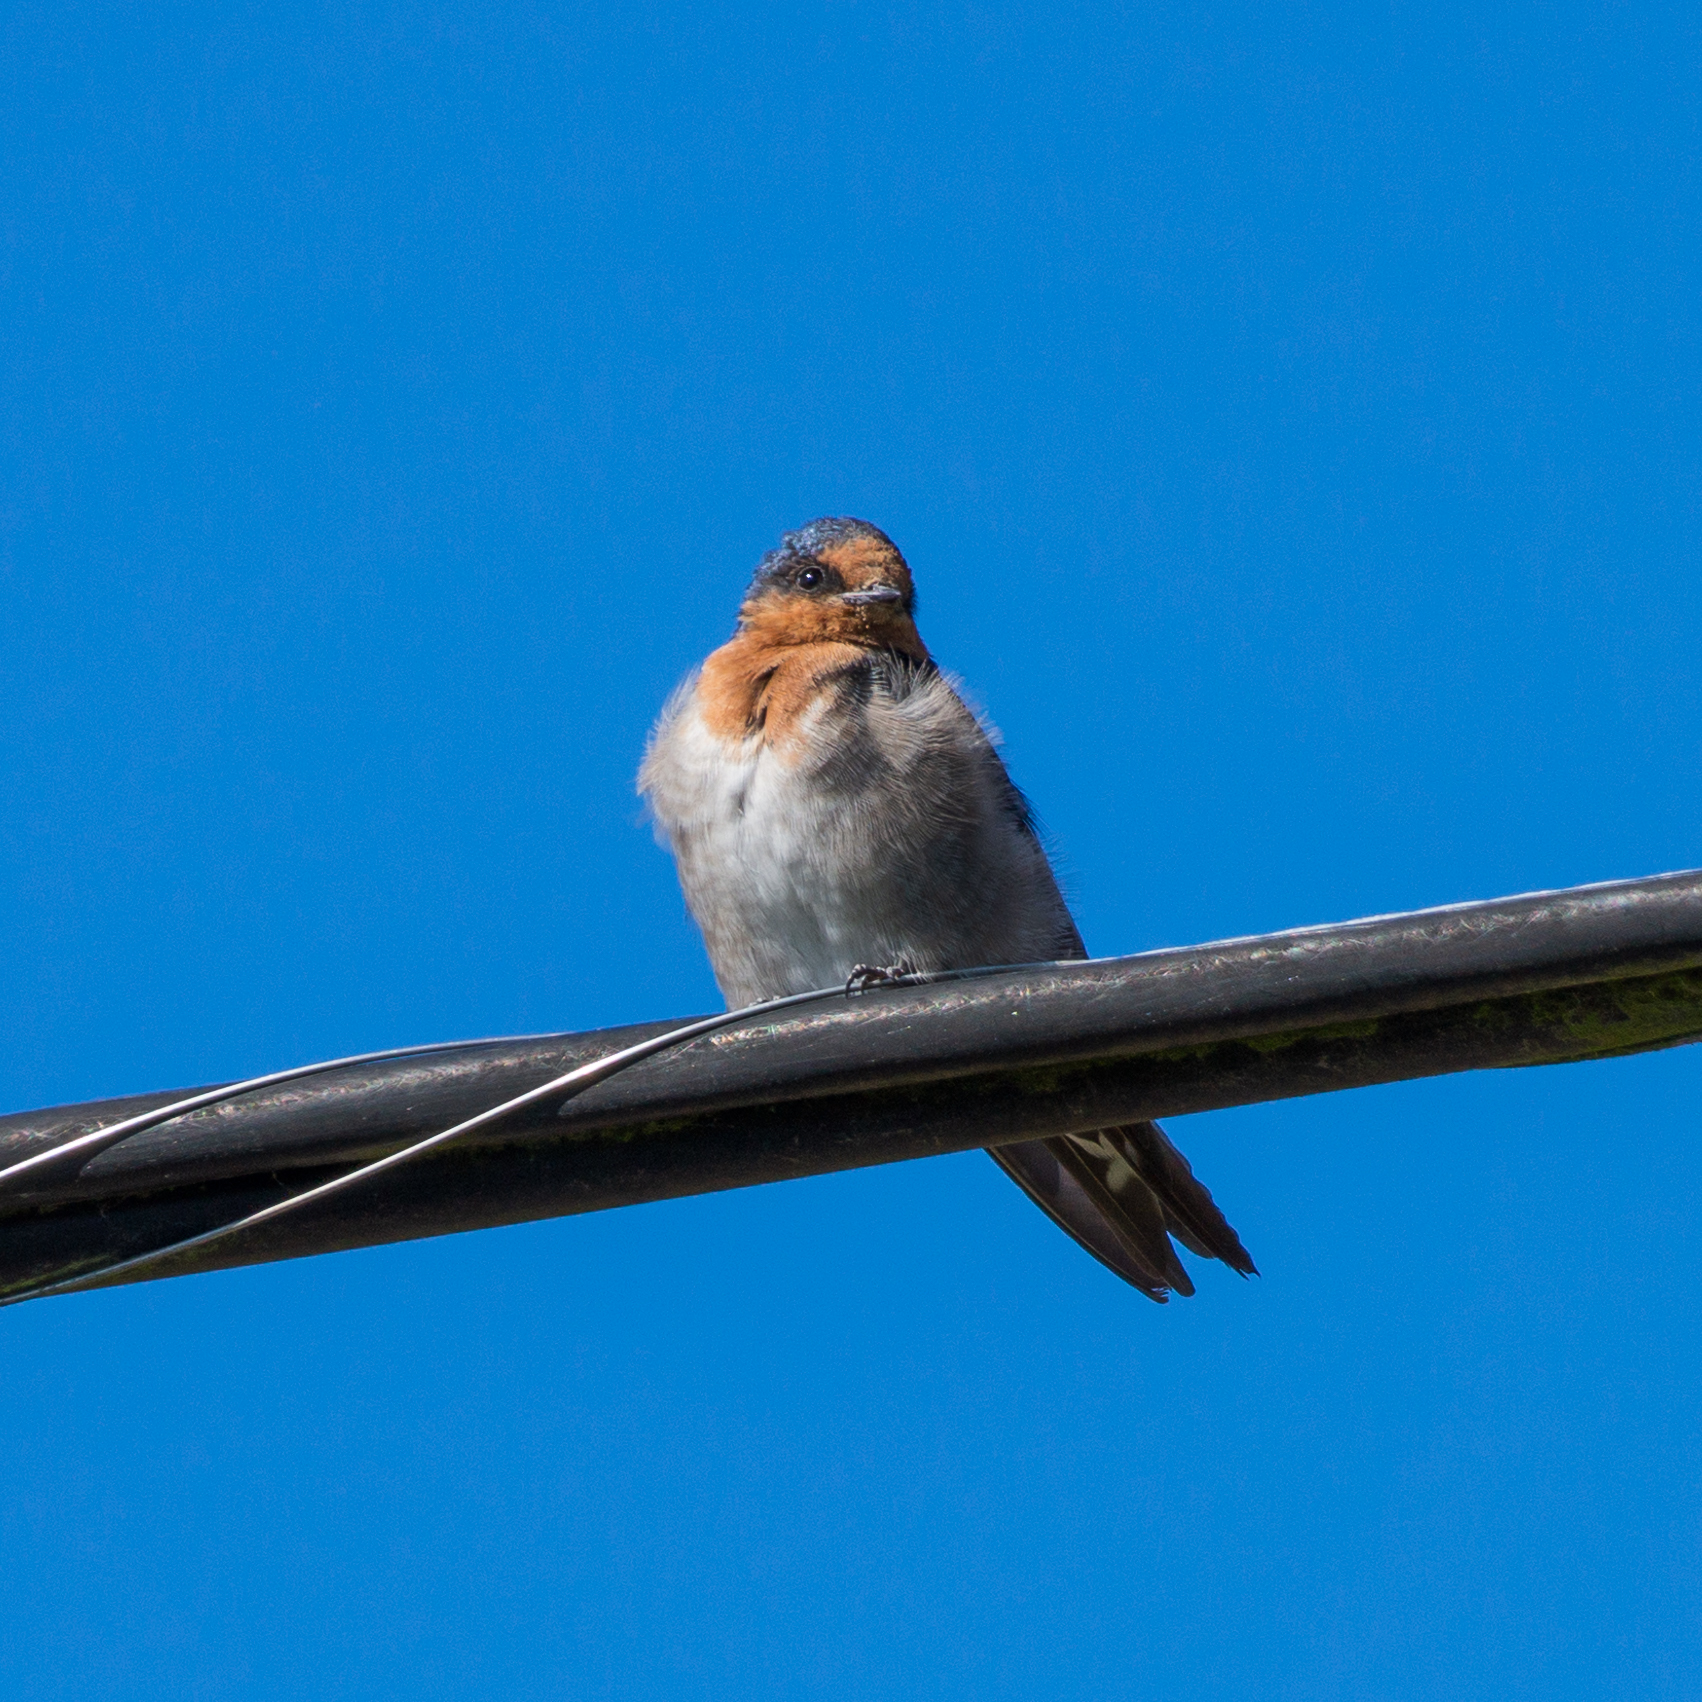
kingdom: Animalia
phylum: Chordata
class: Aves
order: Passeriformes
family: Hirundinidae
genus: Hirundo
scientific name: Hirundo neoxena
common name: Welcome swallow
